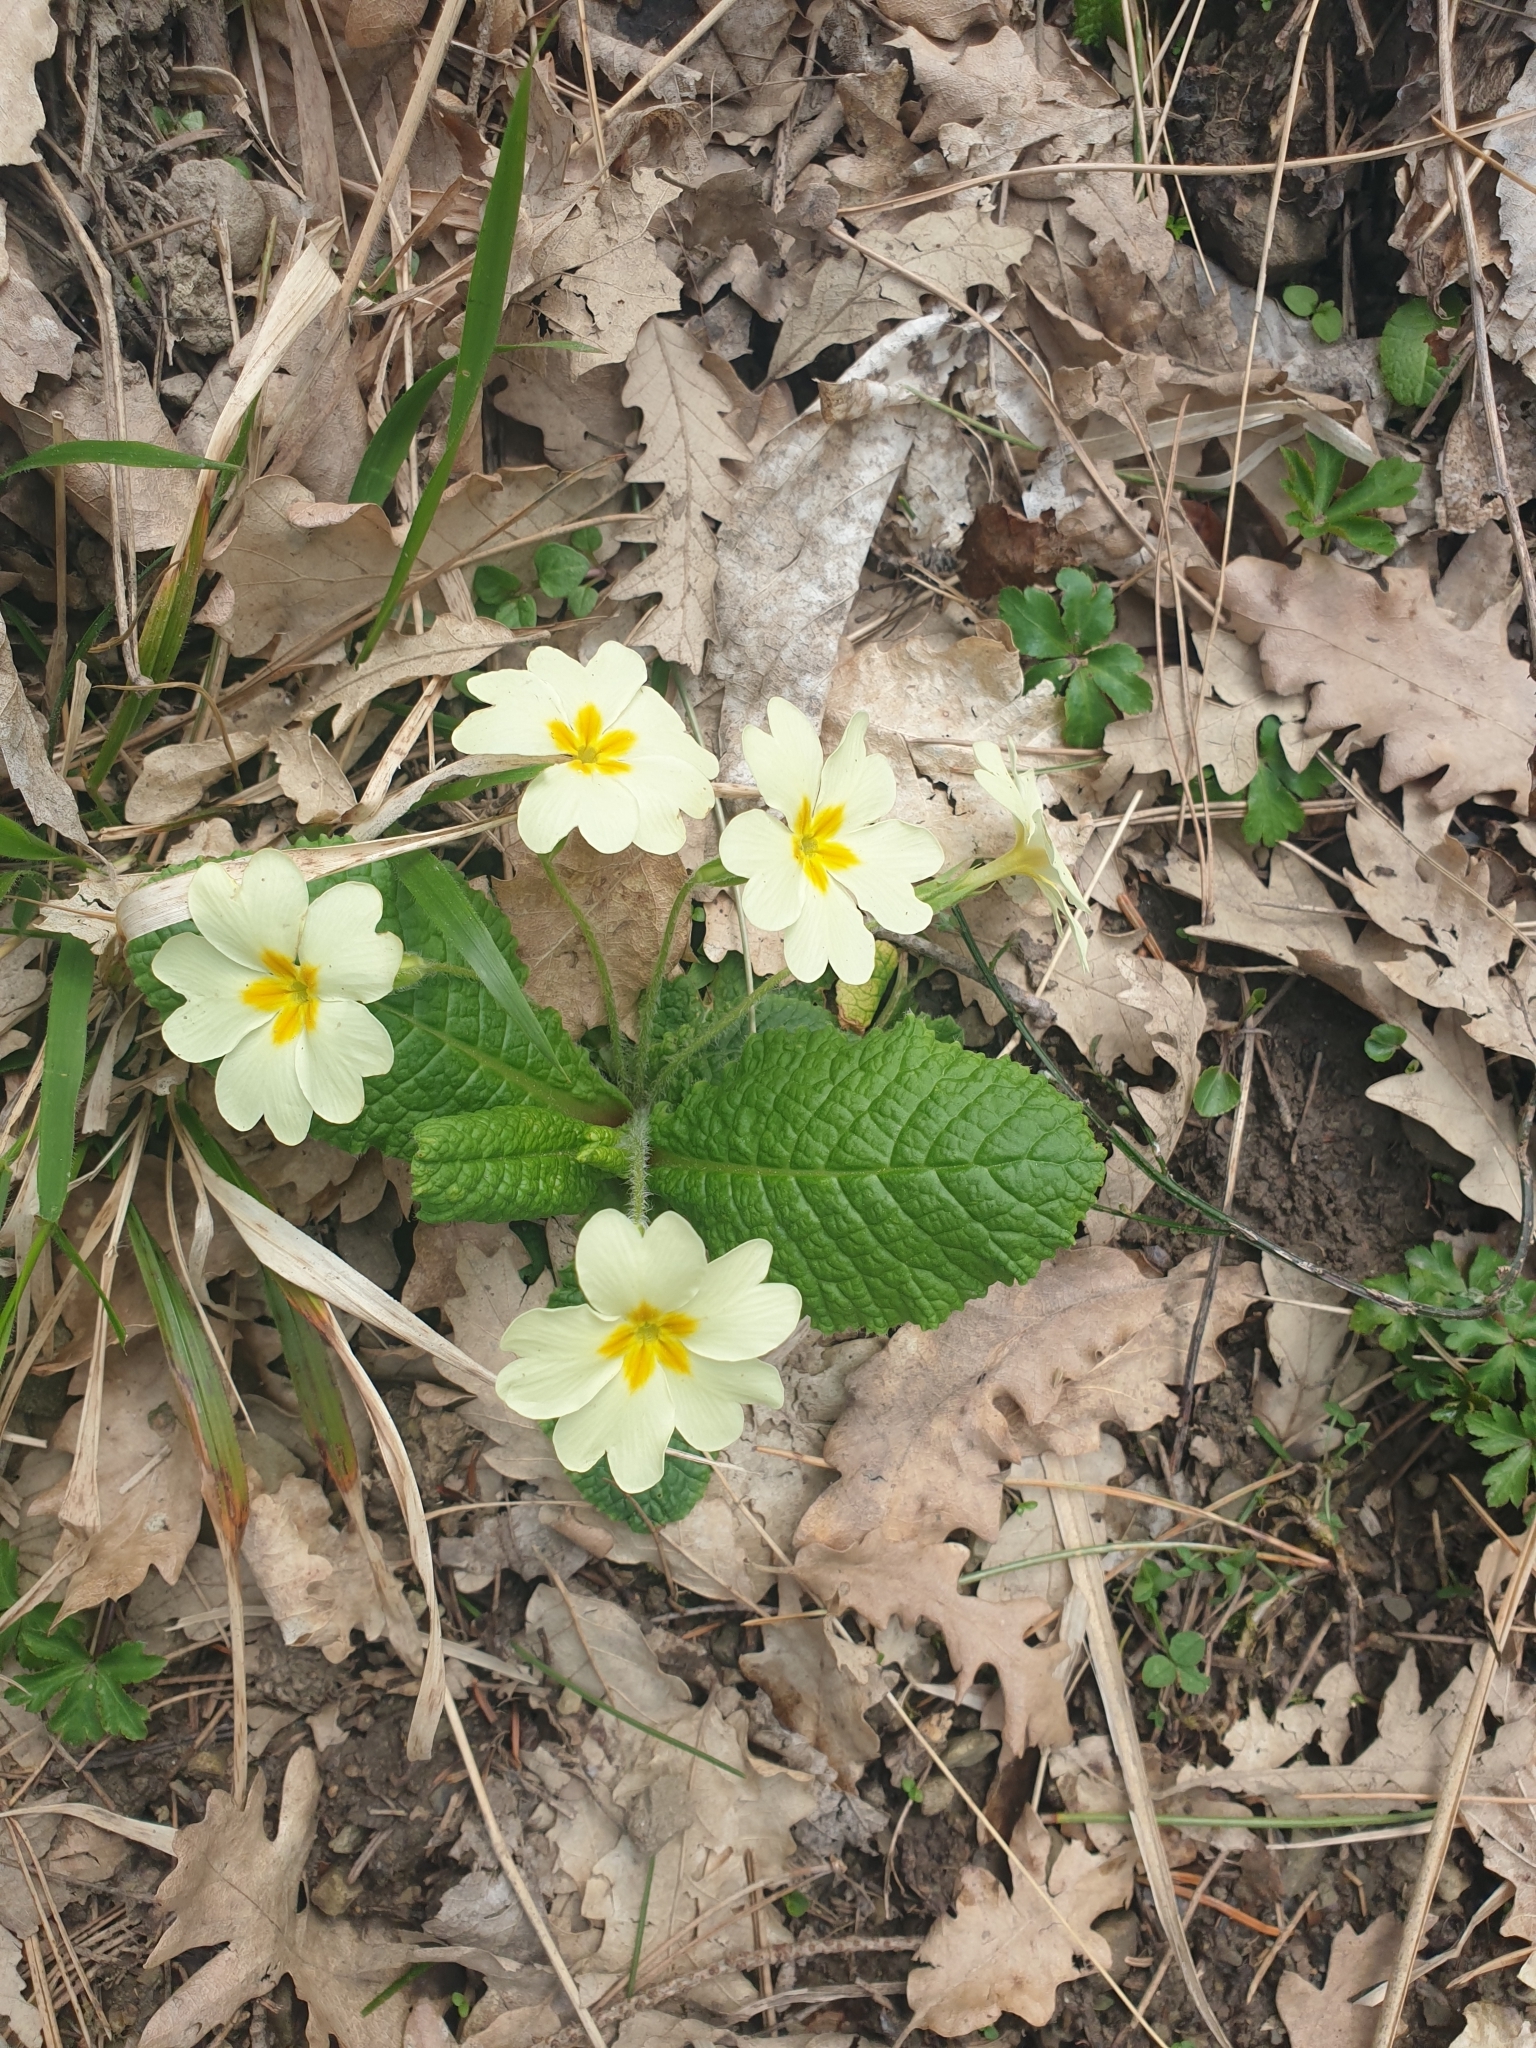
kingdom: Plantae
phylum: Tracheophyta
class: Magnoliopsida
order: Ericales
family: Primulaceae
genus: Primula
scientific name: Primula vulgaris
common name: Primrose
